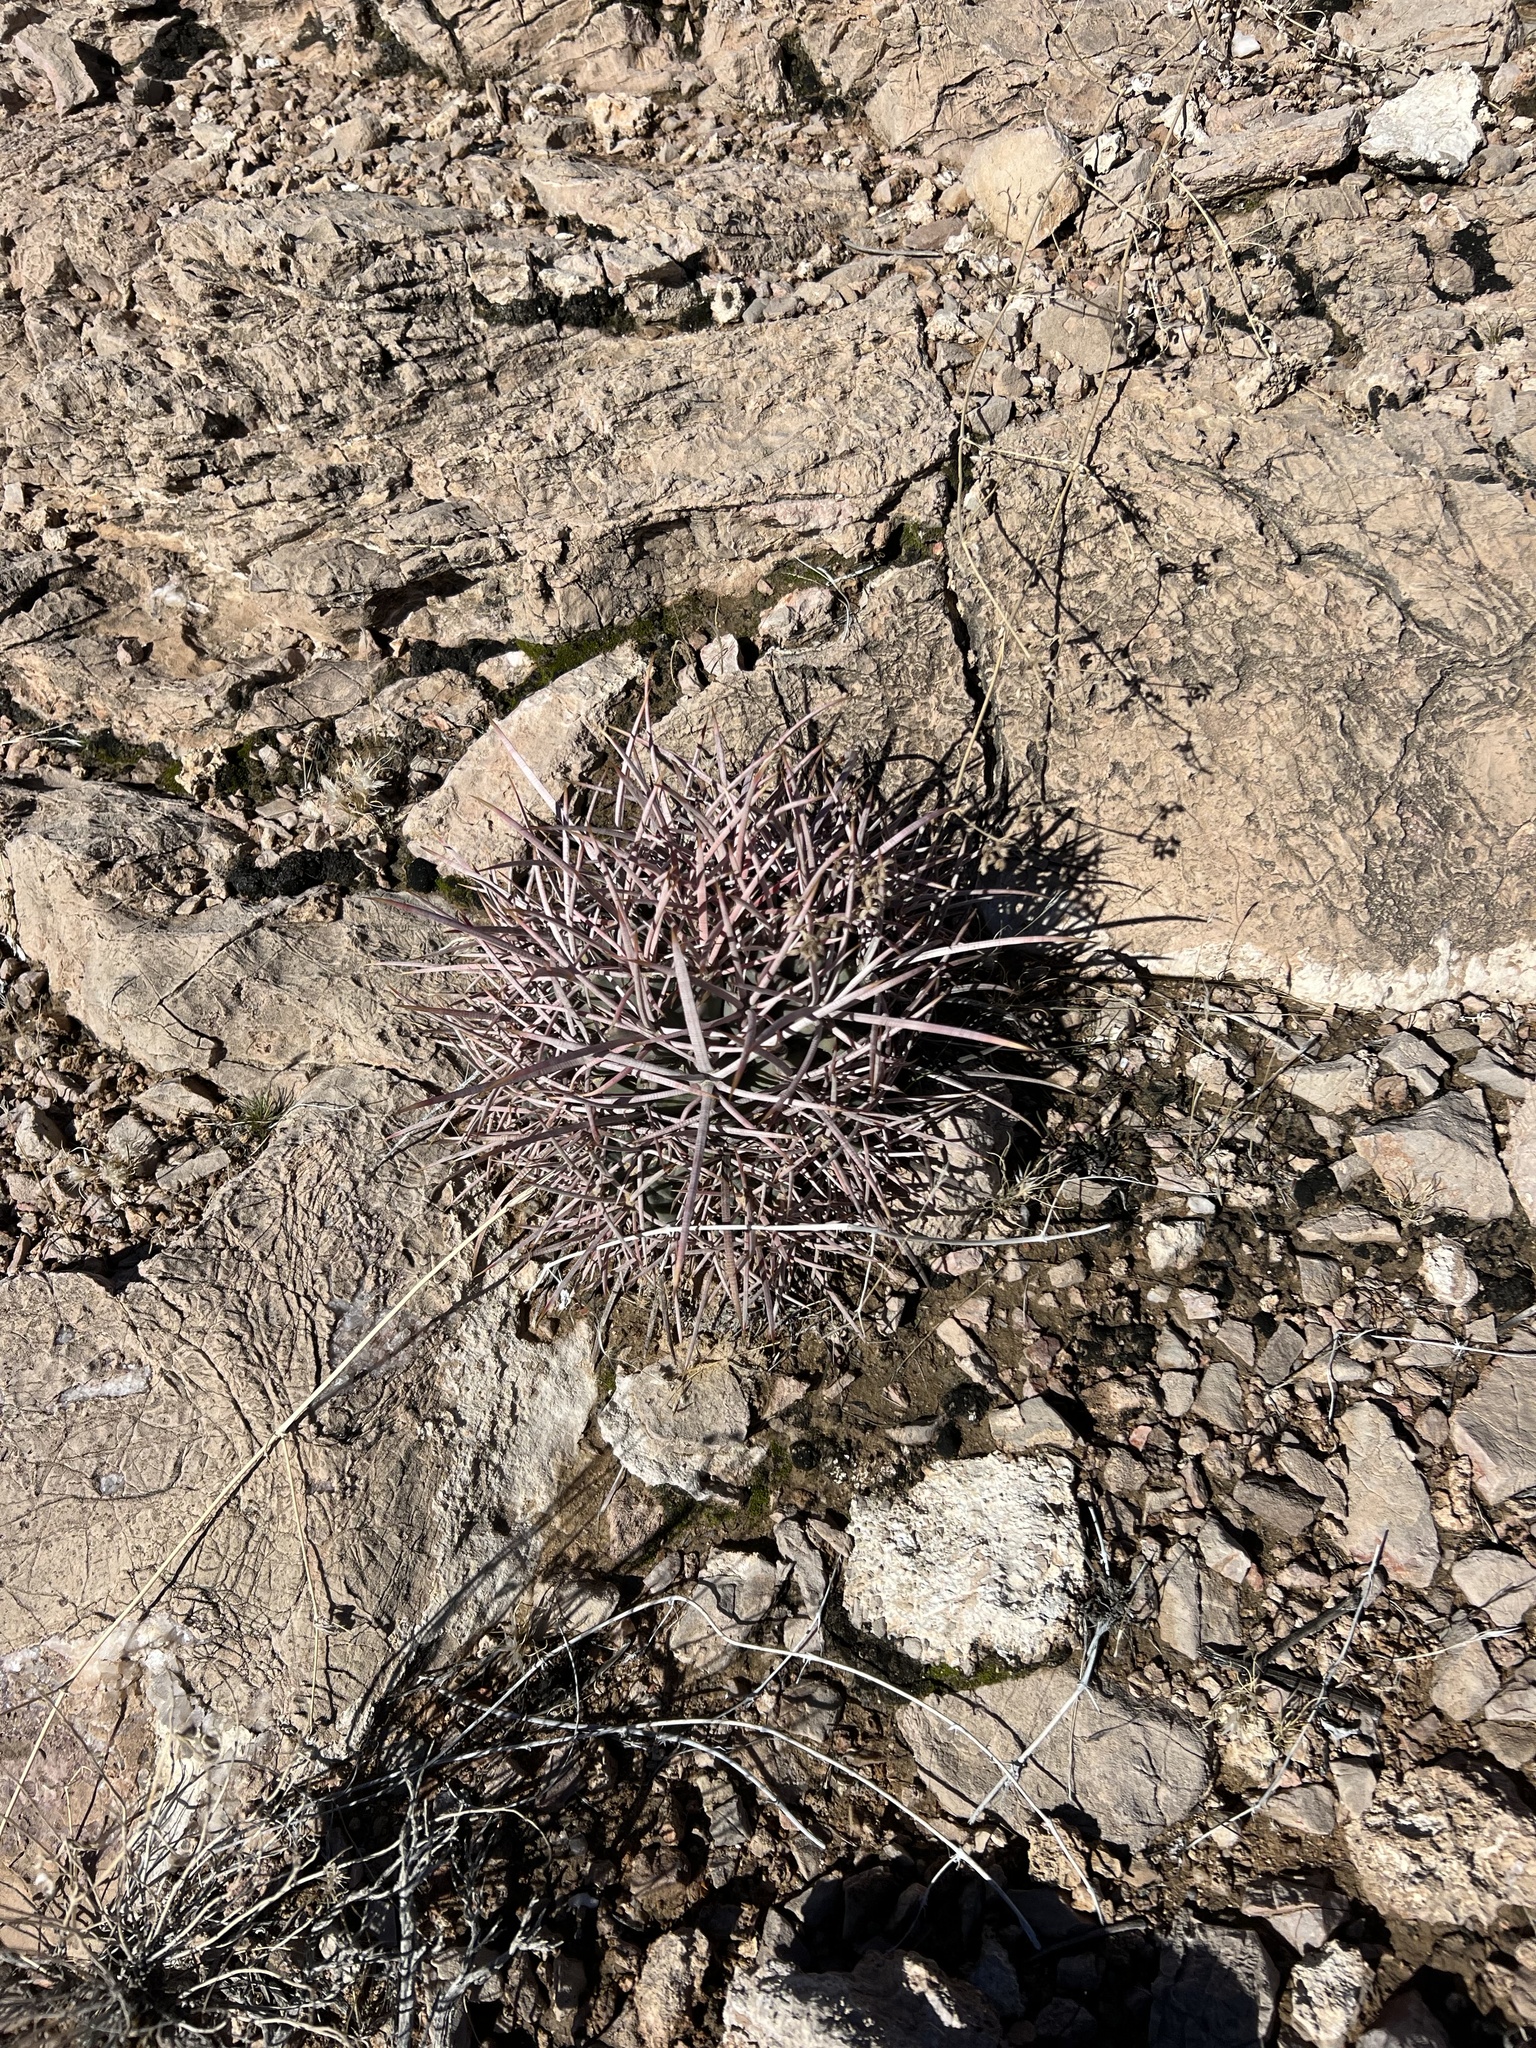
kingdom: Plantae
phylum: Tracheophyta
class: Magnoliopsida
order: Caryophyllales
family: Cactaceae
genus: Echinocactus
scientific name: Echinocactus polycephalus
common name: Cottontop cactus
